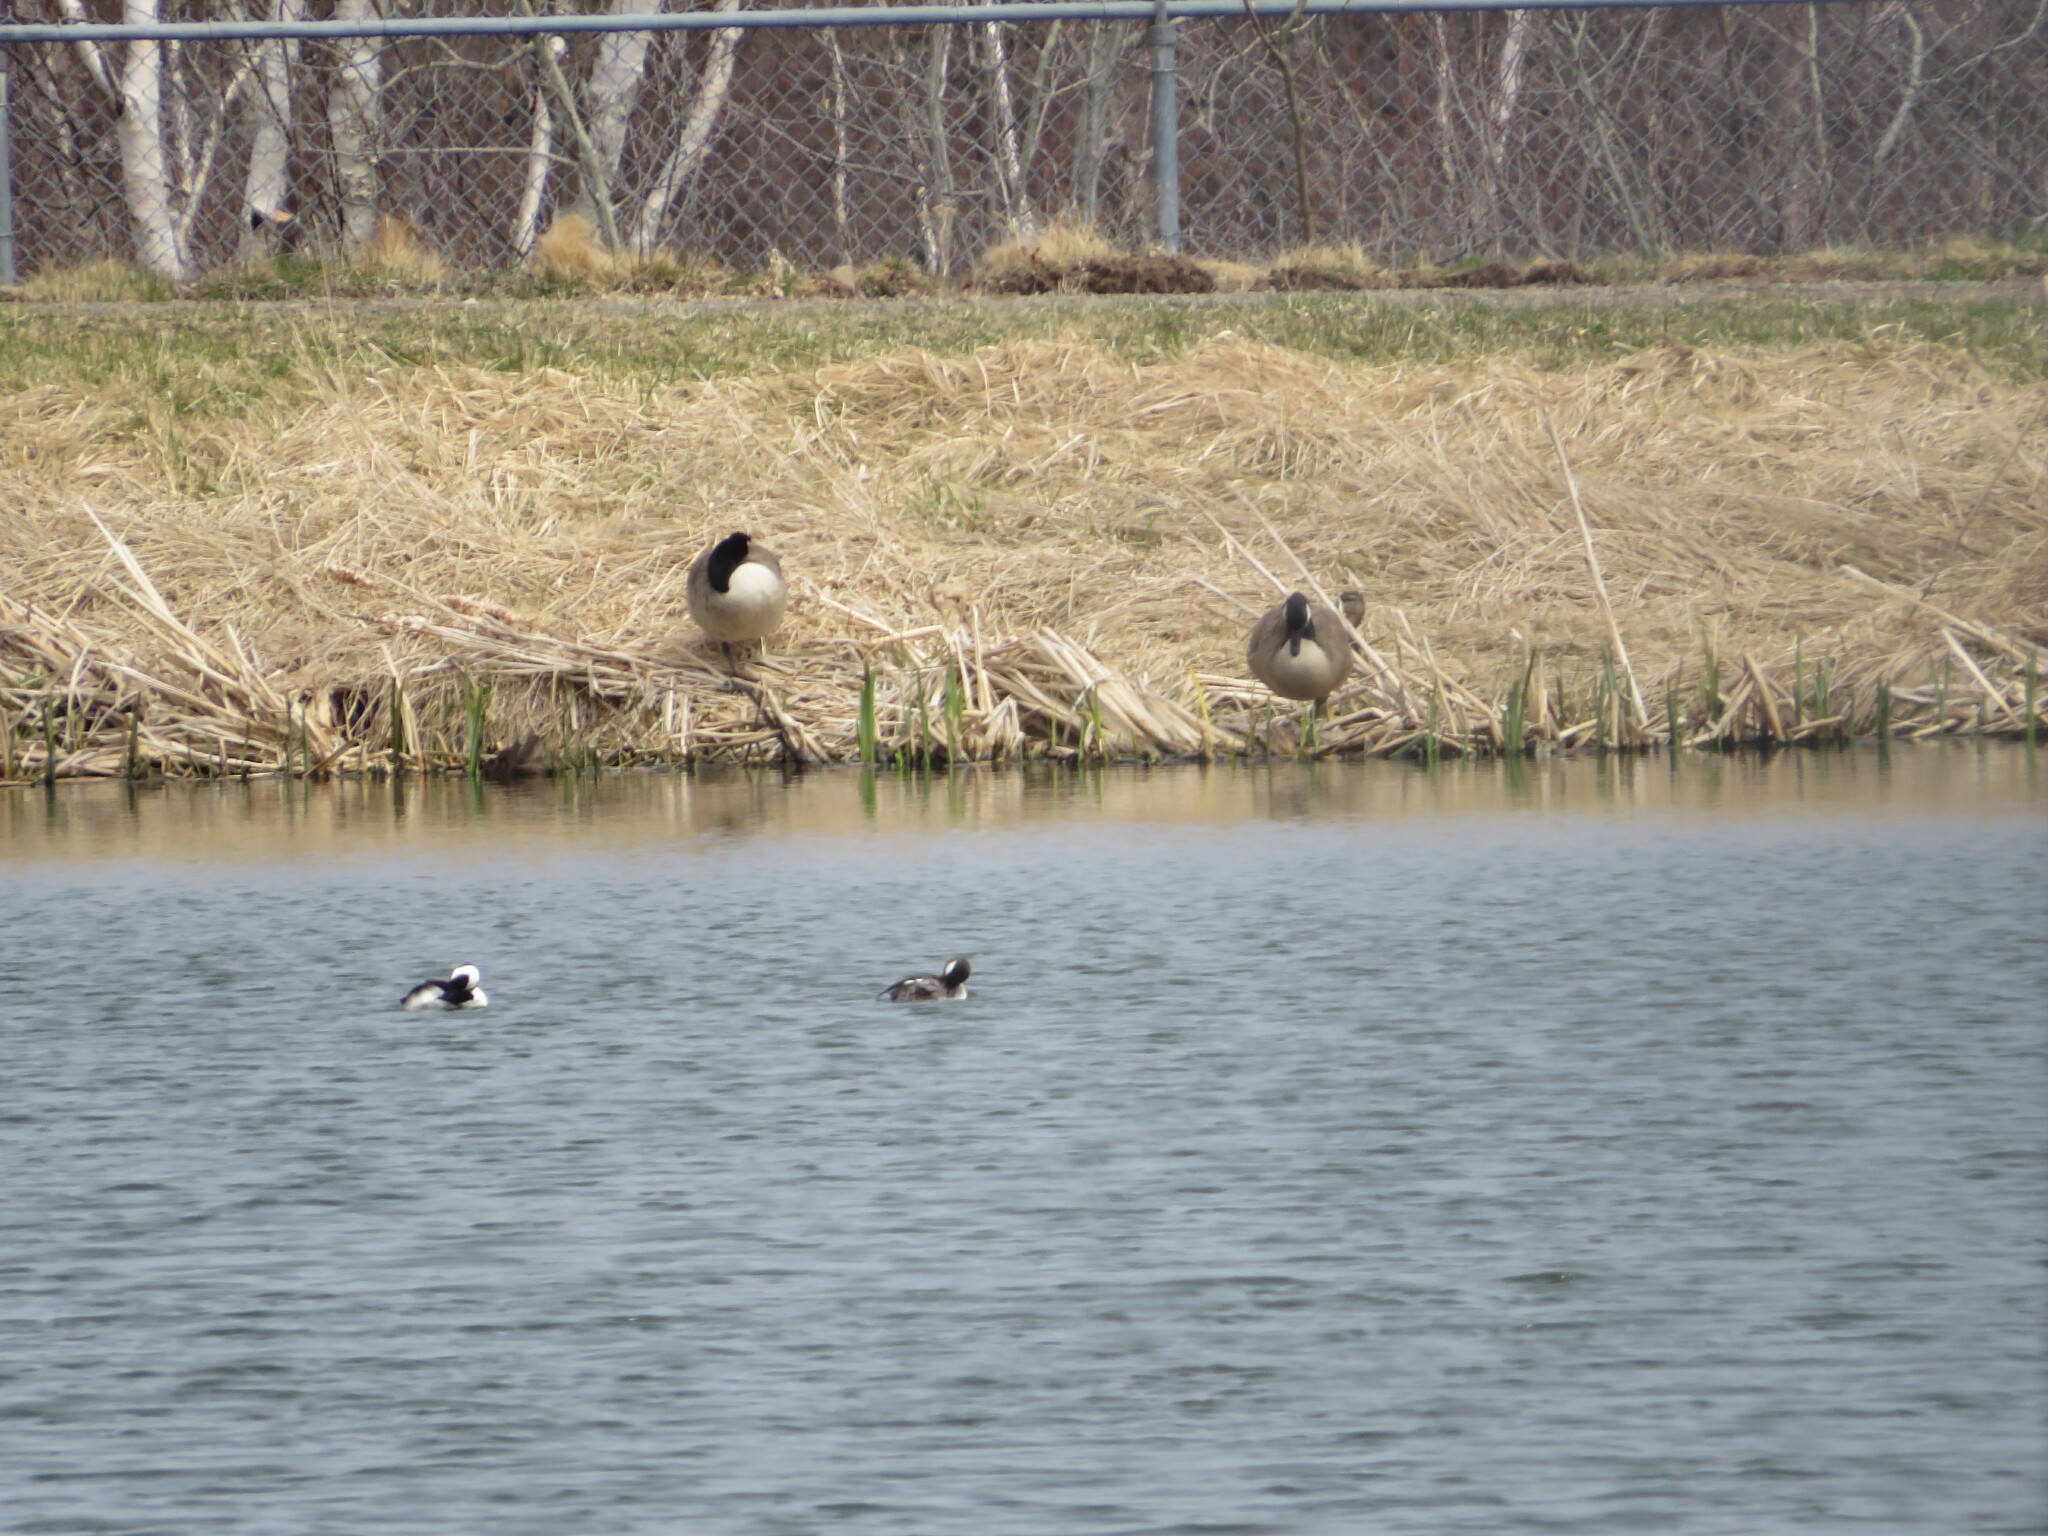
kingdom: Animalia
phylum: Chordata
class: Aves
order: Anseriformes
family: Anatidae
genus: Branta
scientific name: Branta canadensis
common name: Canada goose
